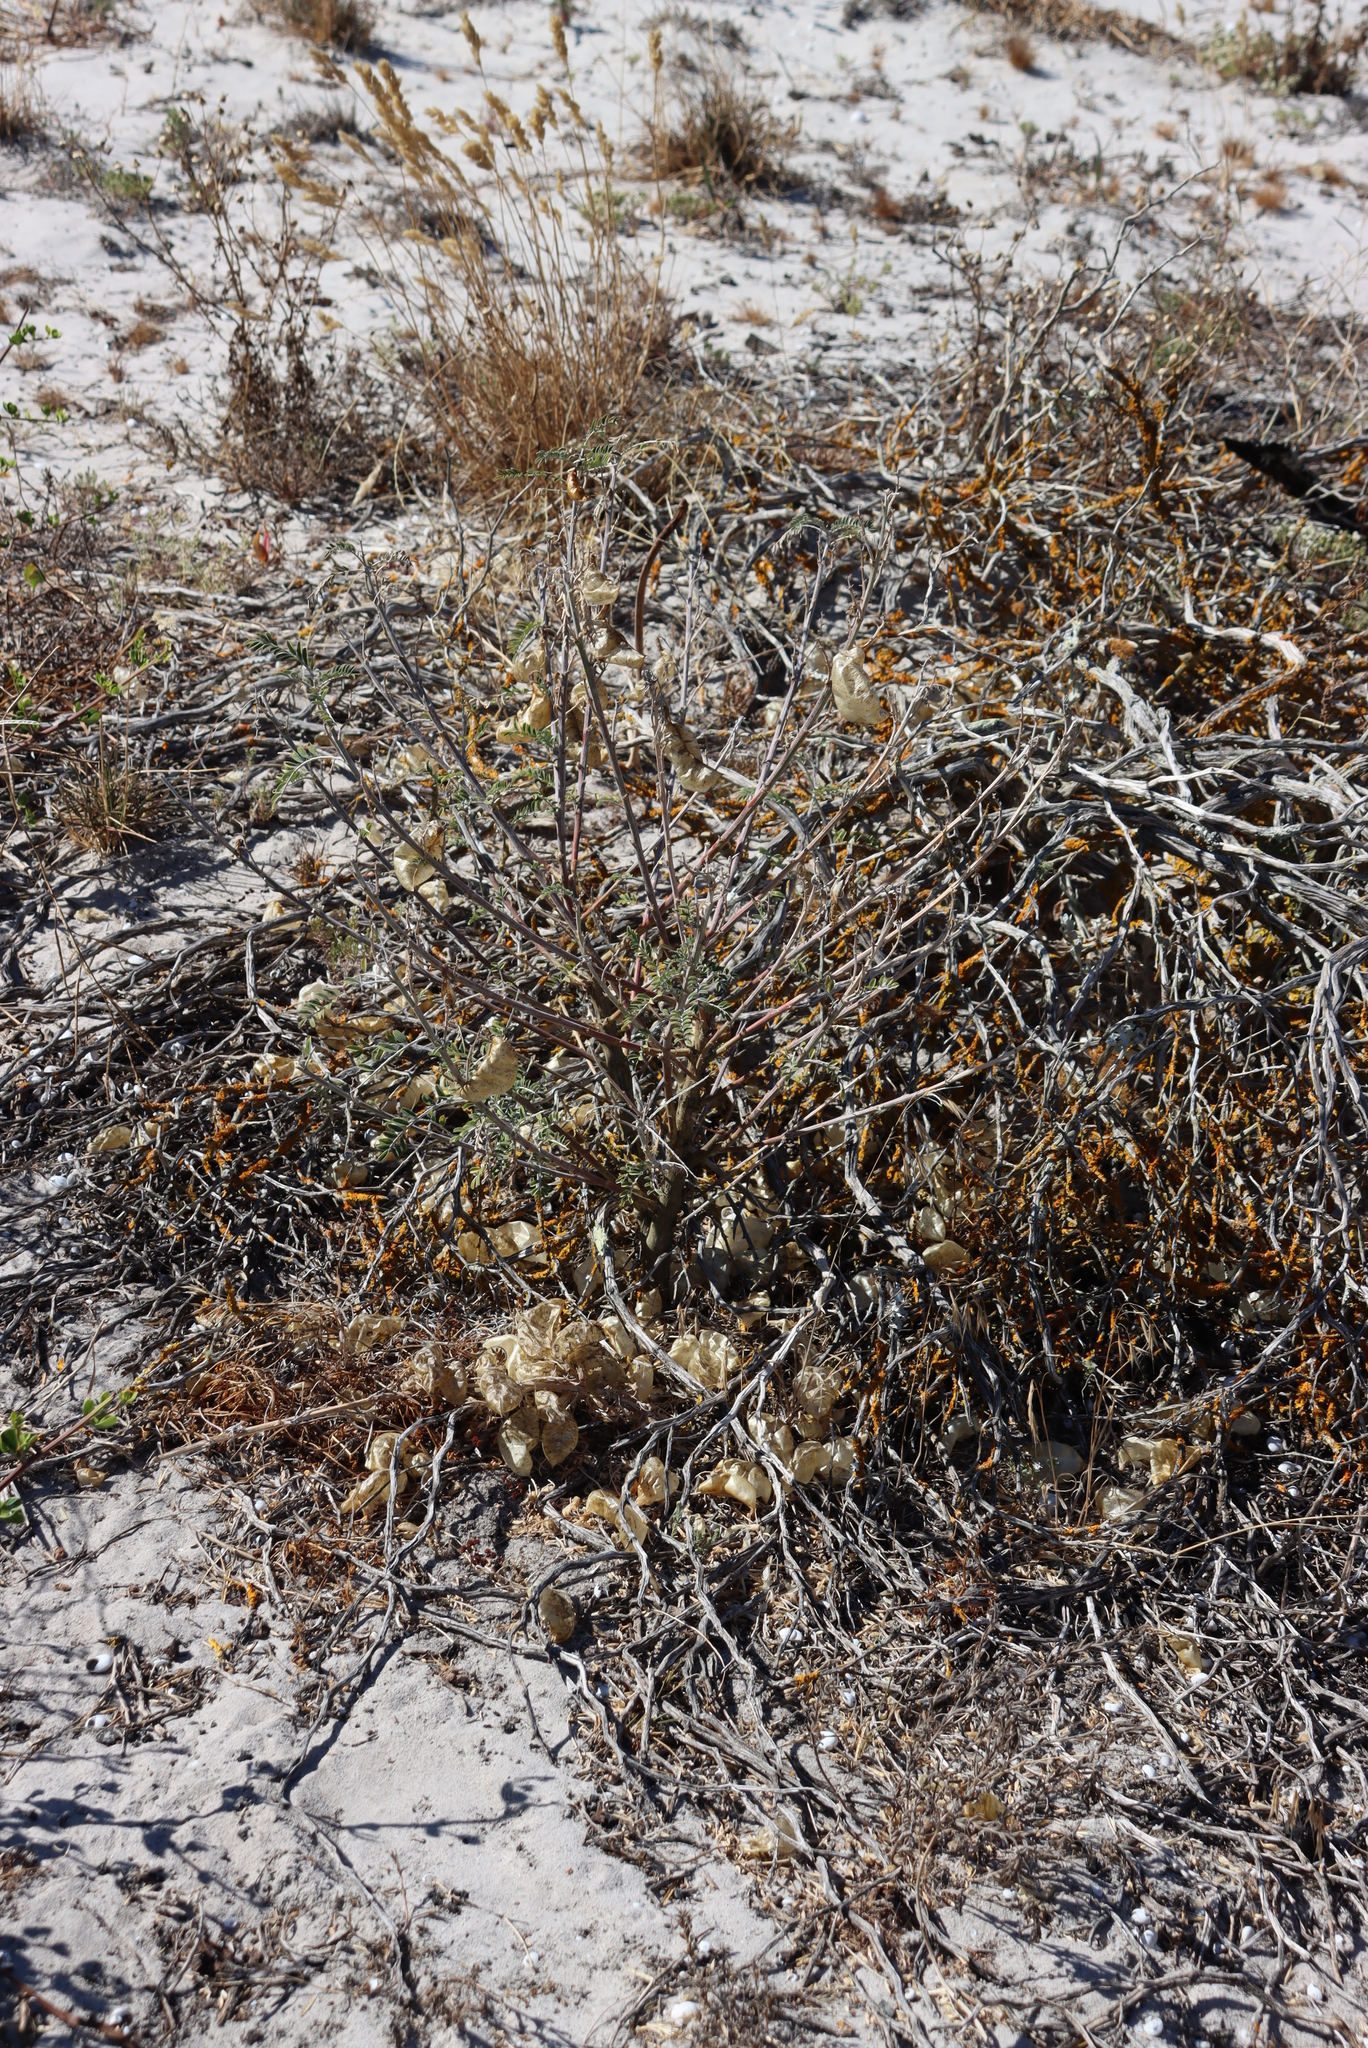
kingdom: Plantae
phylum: Tracheophyta
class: Magnoliopsida
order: Fabales
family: Fabaceae
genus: Lessertia
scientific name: Lessertia frutescens
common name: Balloon-pea
